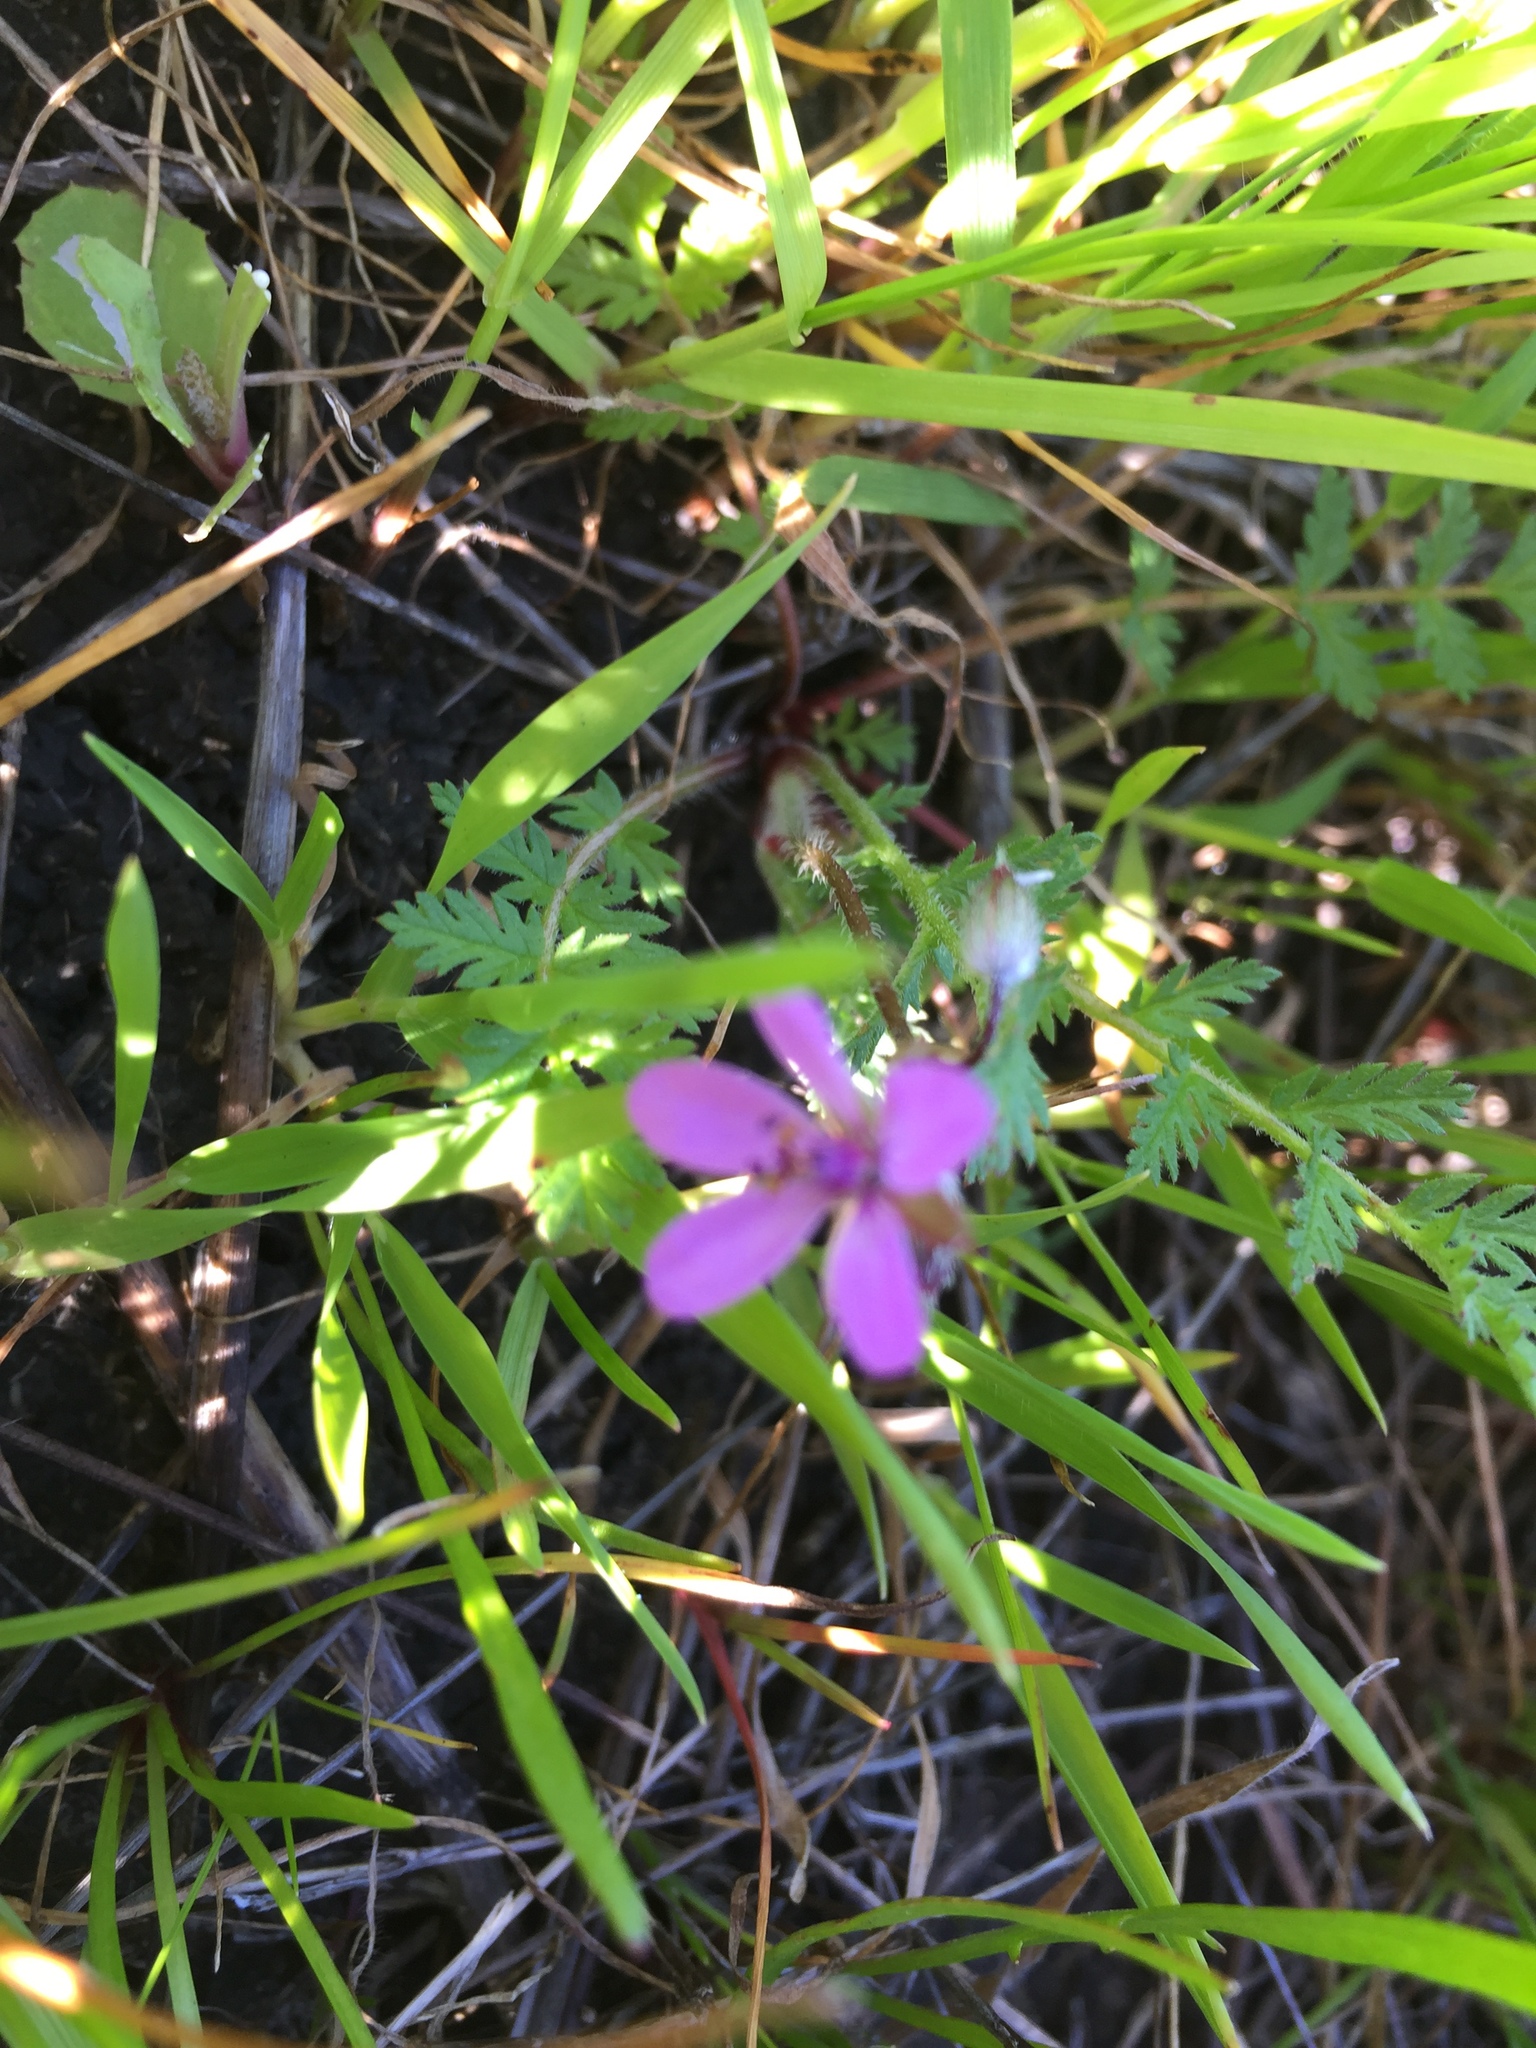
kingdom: Plantae
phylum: Tracheophyta
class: Magnoliopsida
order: Geraniales
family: Geraniaceae
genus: Erodium
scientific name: Erodium cicutarium
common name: Common stork's-bill
